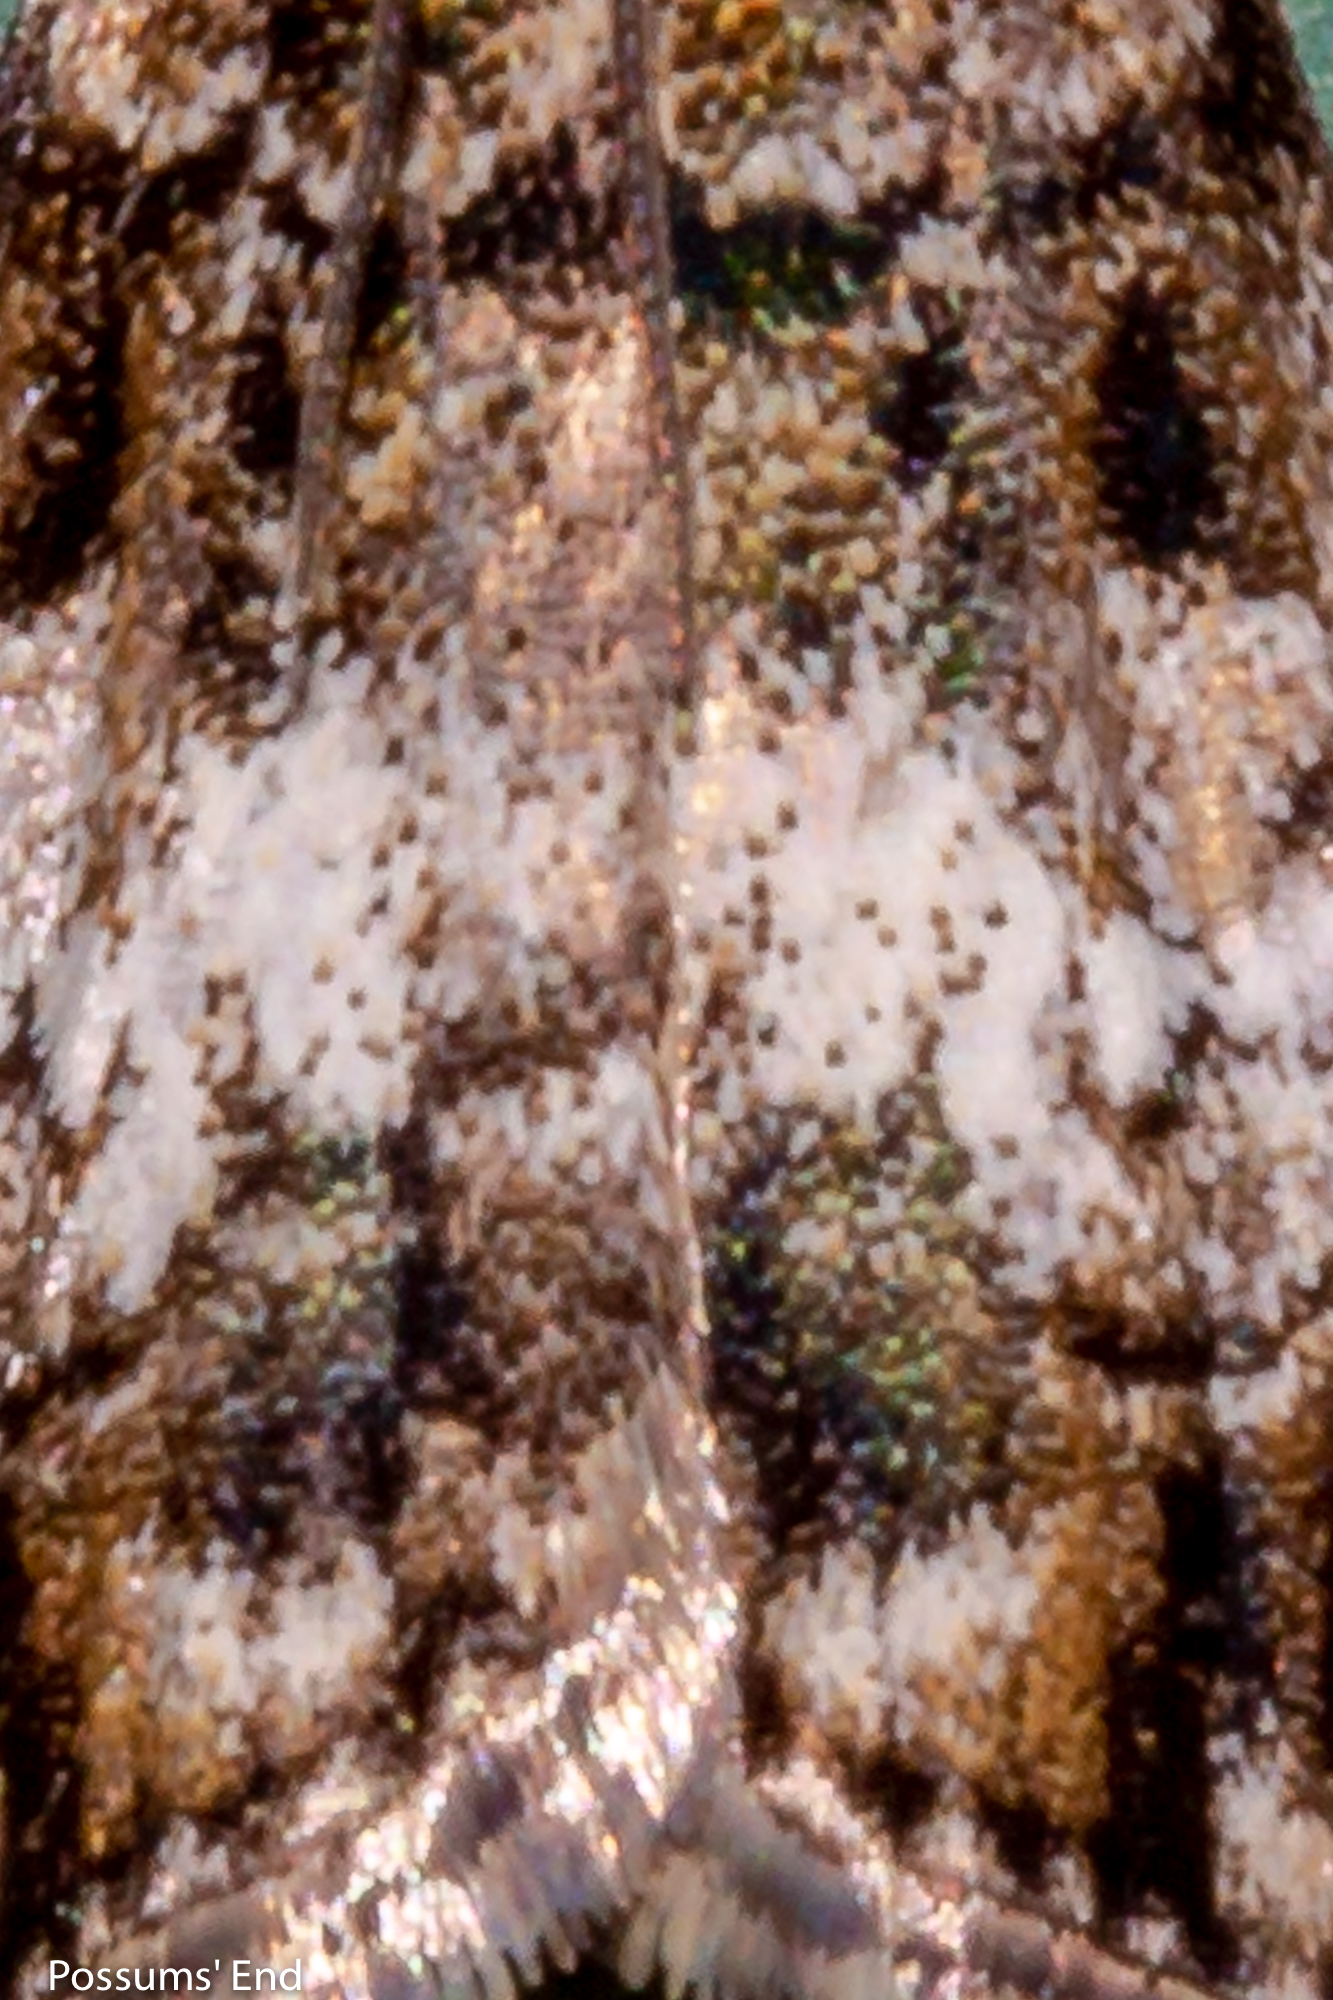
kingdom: Animalia
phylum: Arthropoda
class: Insecta
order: Lepidoptera
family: Crambidae
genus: Eudonia
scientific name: Eudonia dinodes
